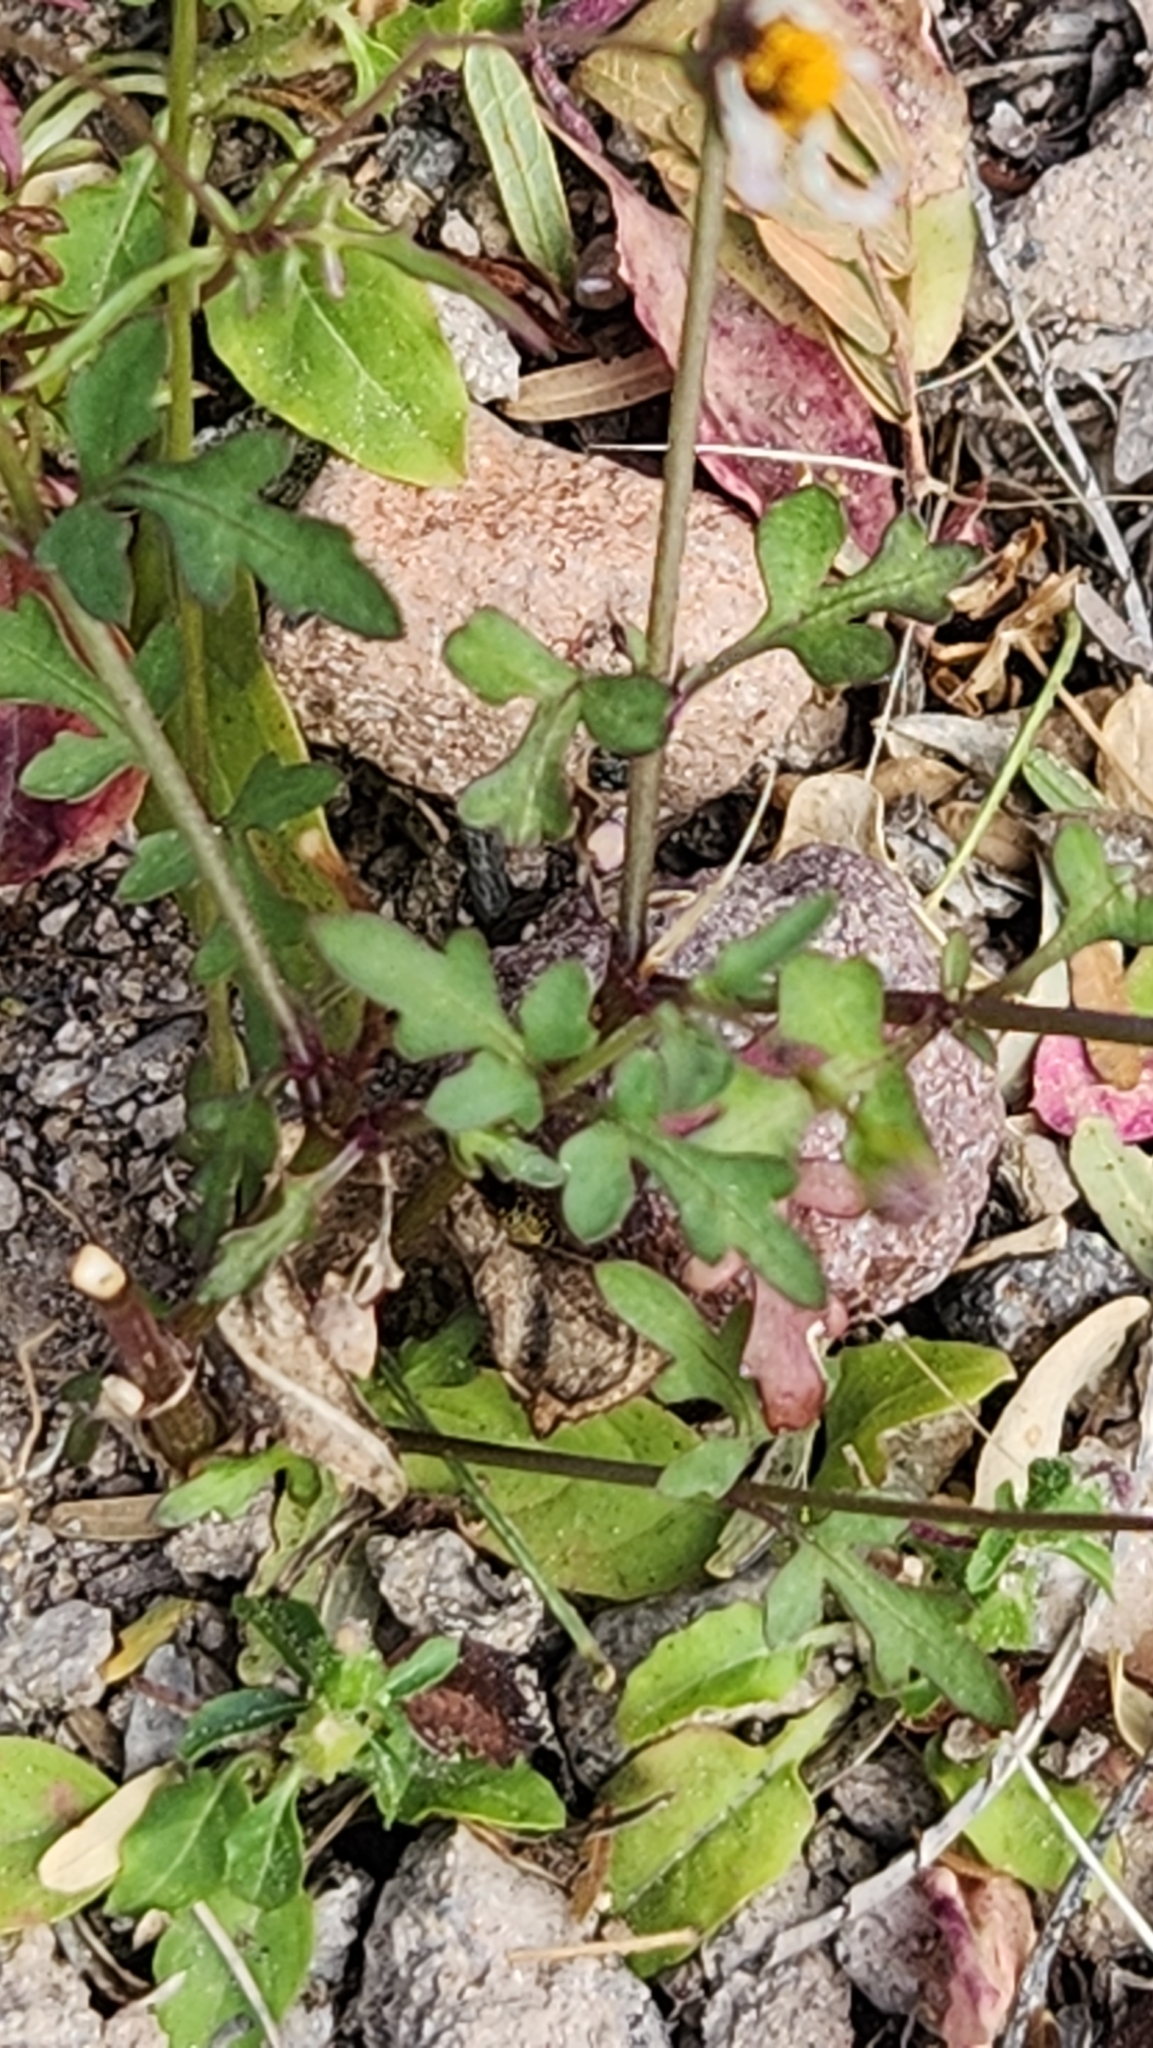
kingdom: Plantae
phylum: Tracheophyta
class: Magnoliopsida
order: Asterales
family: Asteraceae
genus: Coreocarpus
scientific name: Coreocarpus parthenioides
